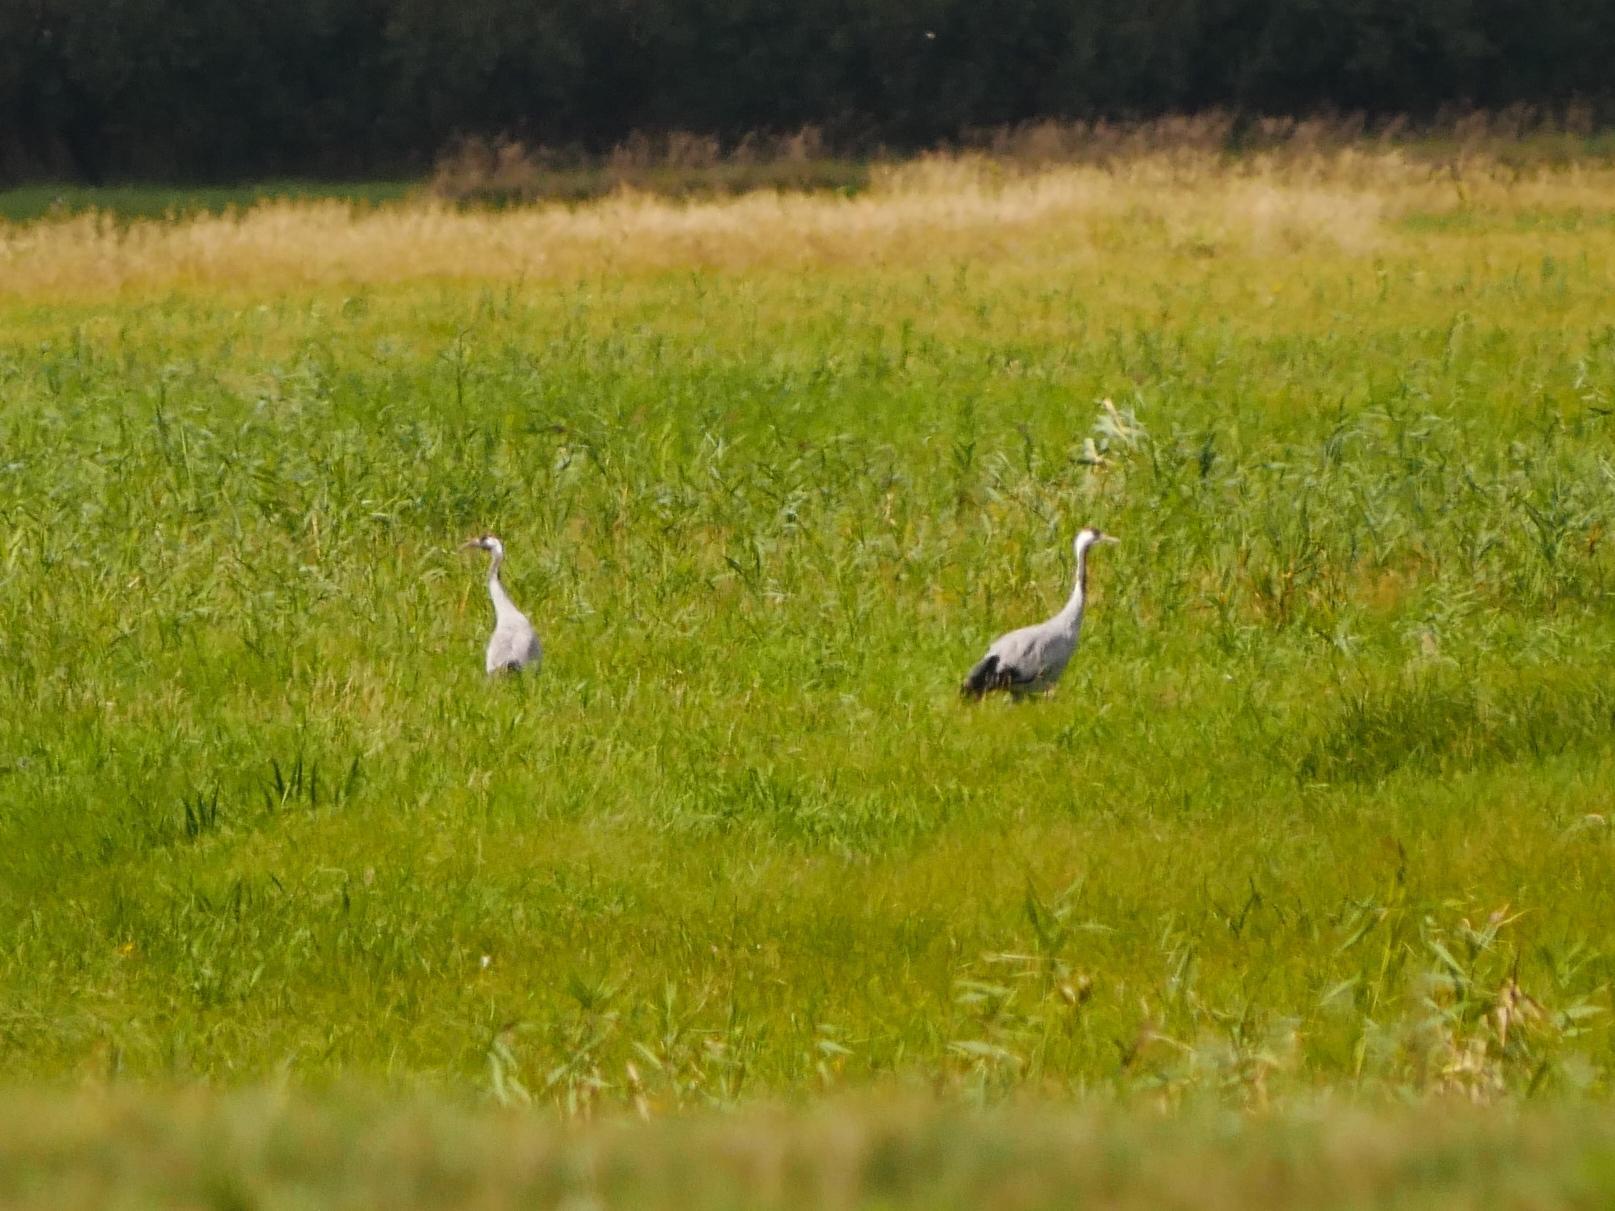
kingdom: Animalia
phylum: Chordata
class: Aves
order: Gruiformes
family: Gruidae
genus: Grus
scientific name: Grus grus
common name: Common crane
